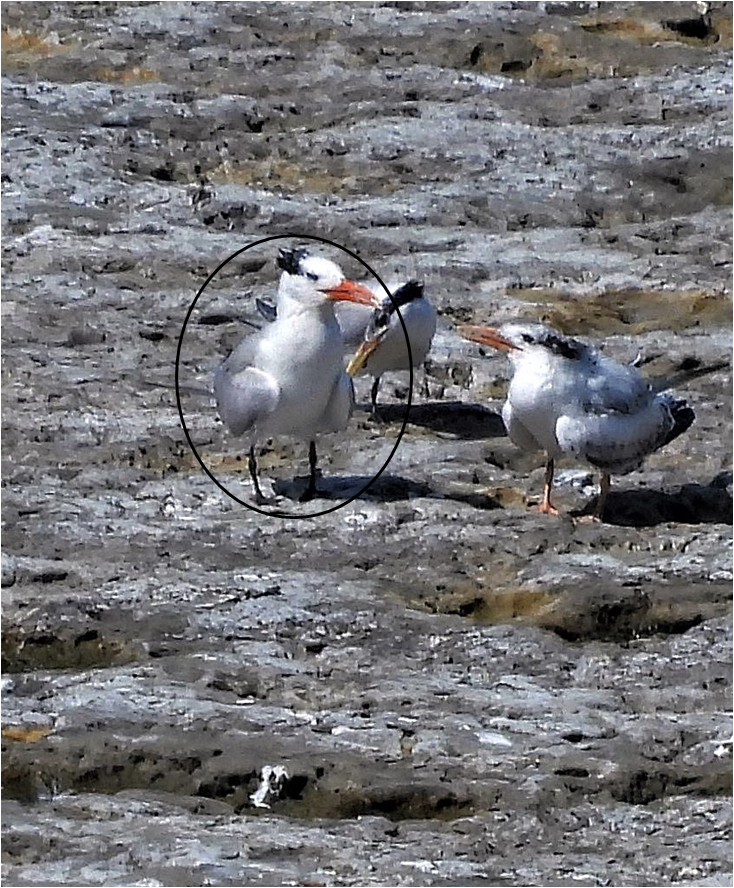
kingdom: Animalia
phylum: Chordata
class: Aves
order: Charadriiformes
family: Laridae
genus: Thalasseus
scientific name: Thalasseus maximus
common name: Royal tern
